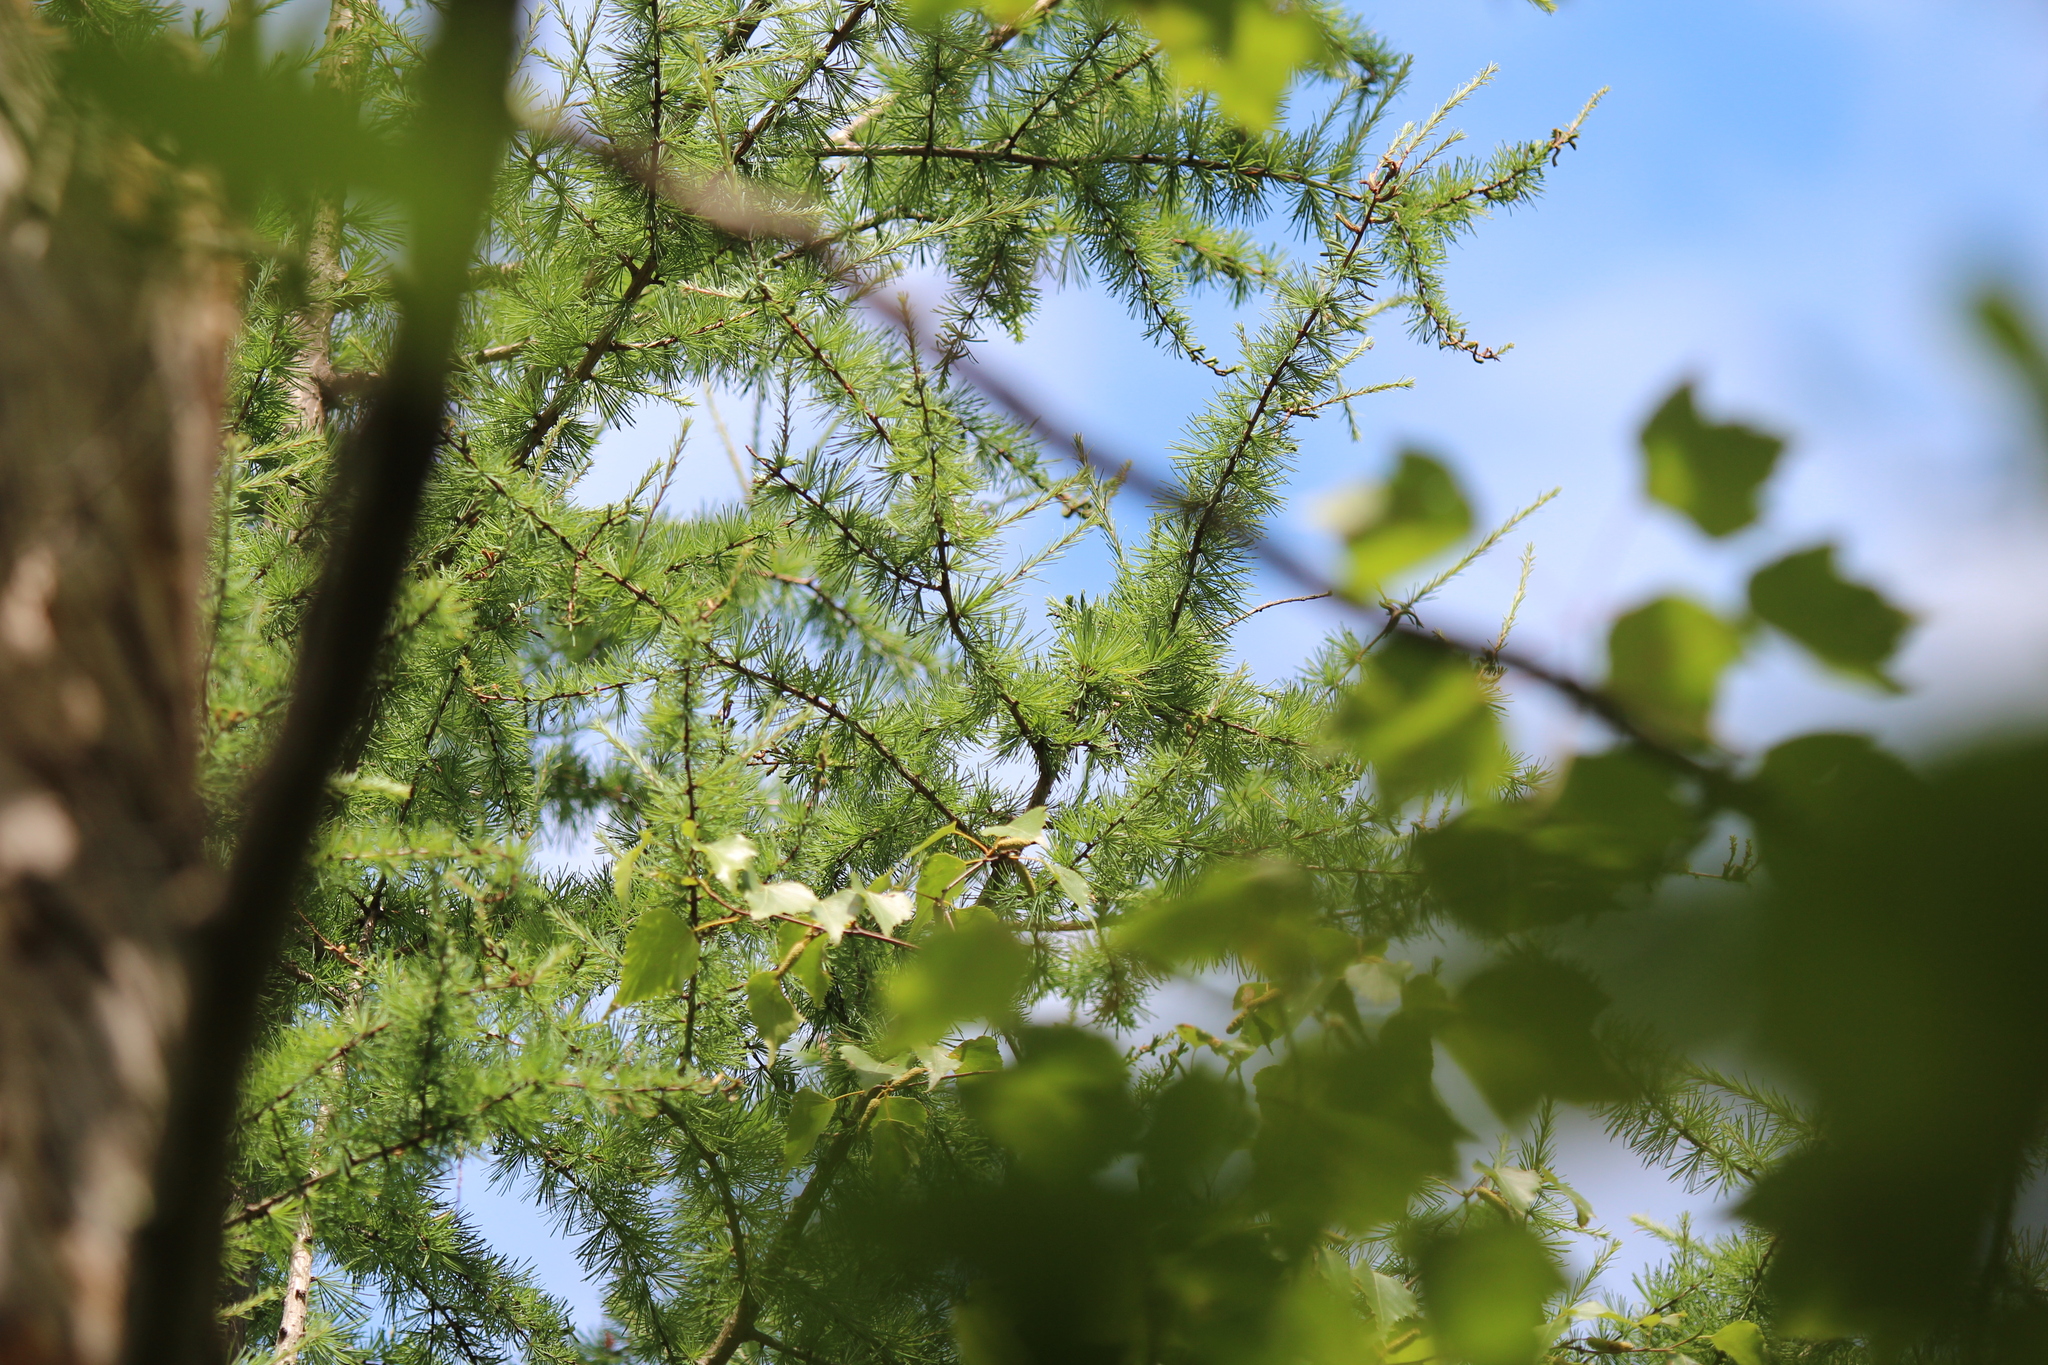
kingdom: Plantae
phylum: Tracheophyta
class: Pinopsida
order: Pinales
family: Pinaceae
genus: Larix
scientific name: Larix laricina
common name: American larch
